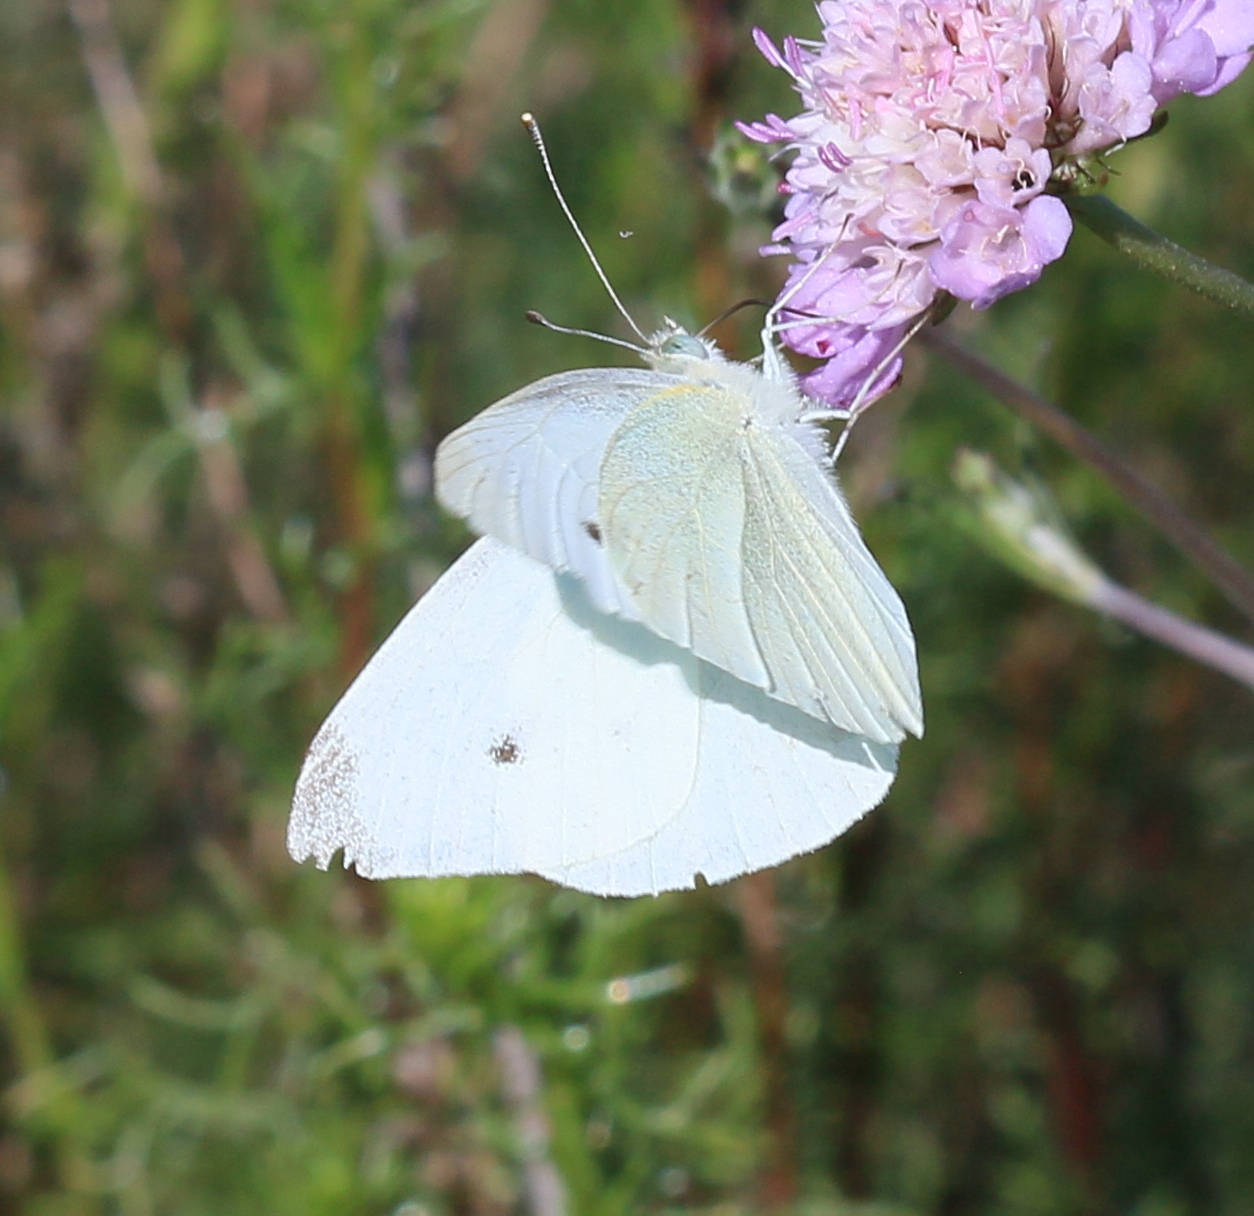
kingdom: Animalia
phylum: Arthropoda
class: Insecta
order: Lepidoptera
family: Pieridae
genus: Pieris
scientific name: Pieris rapae
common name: Small white
